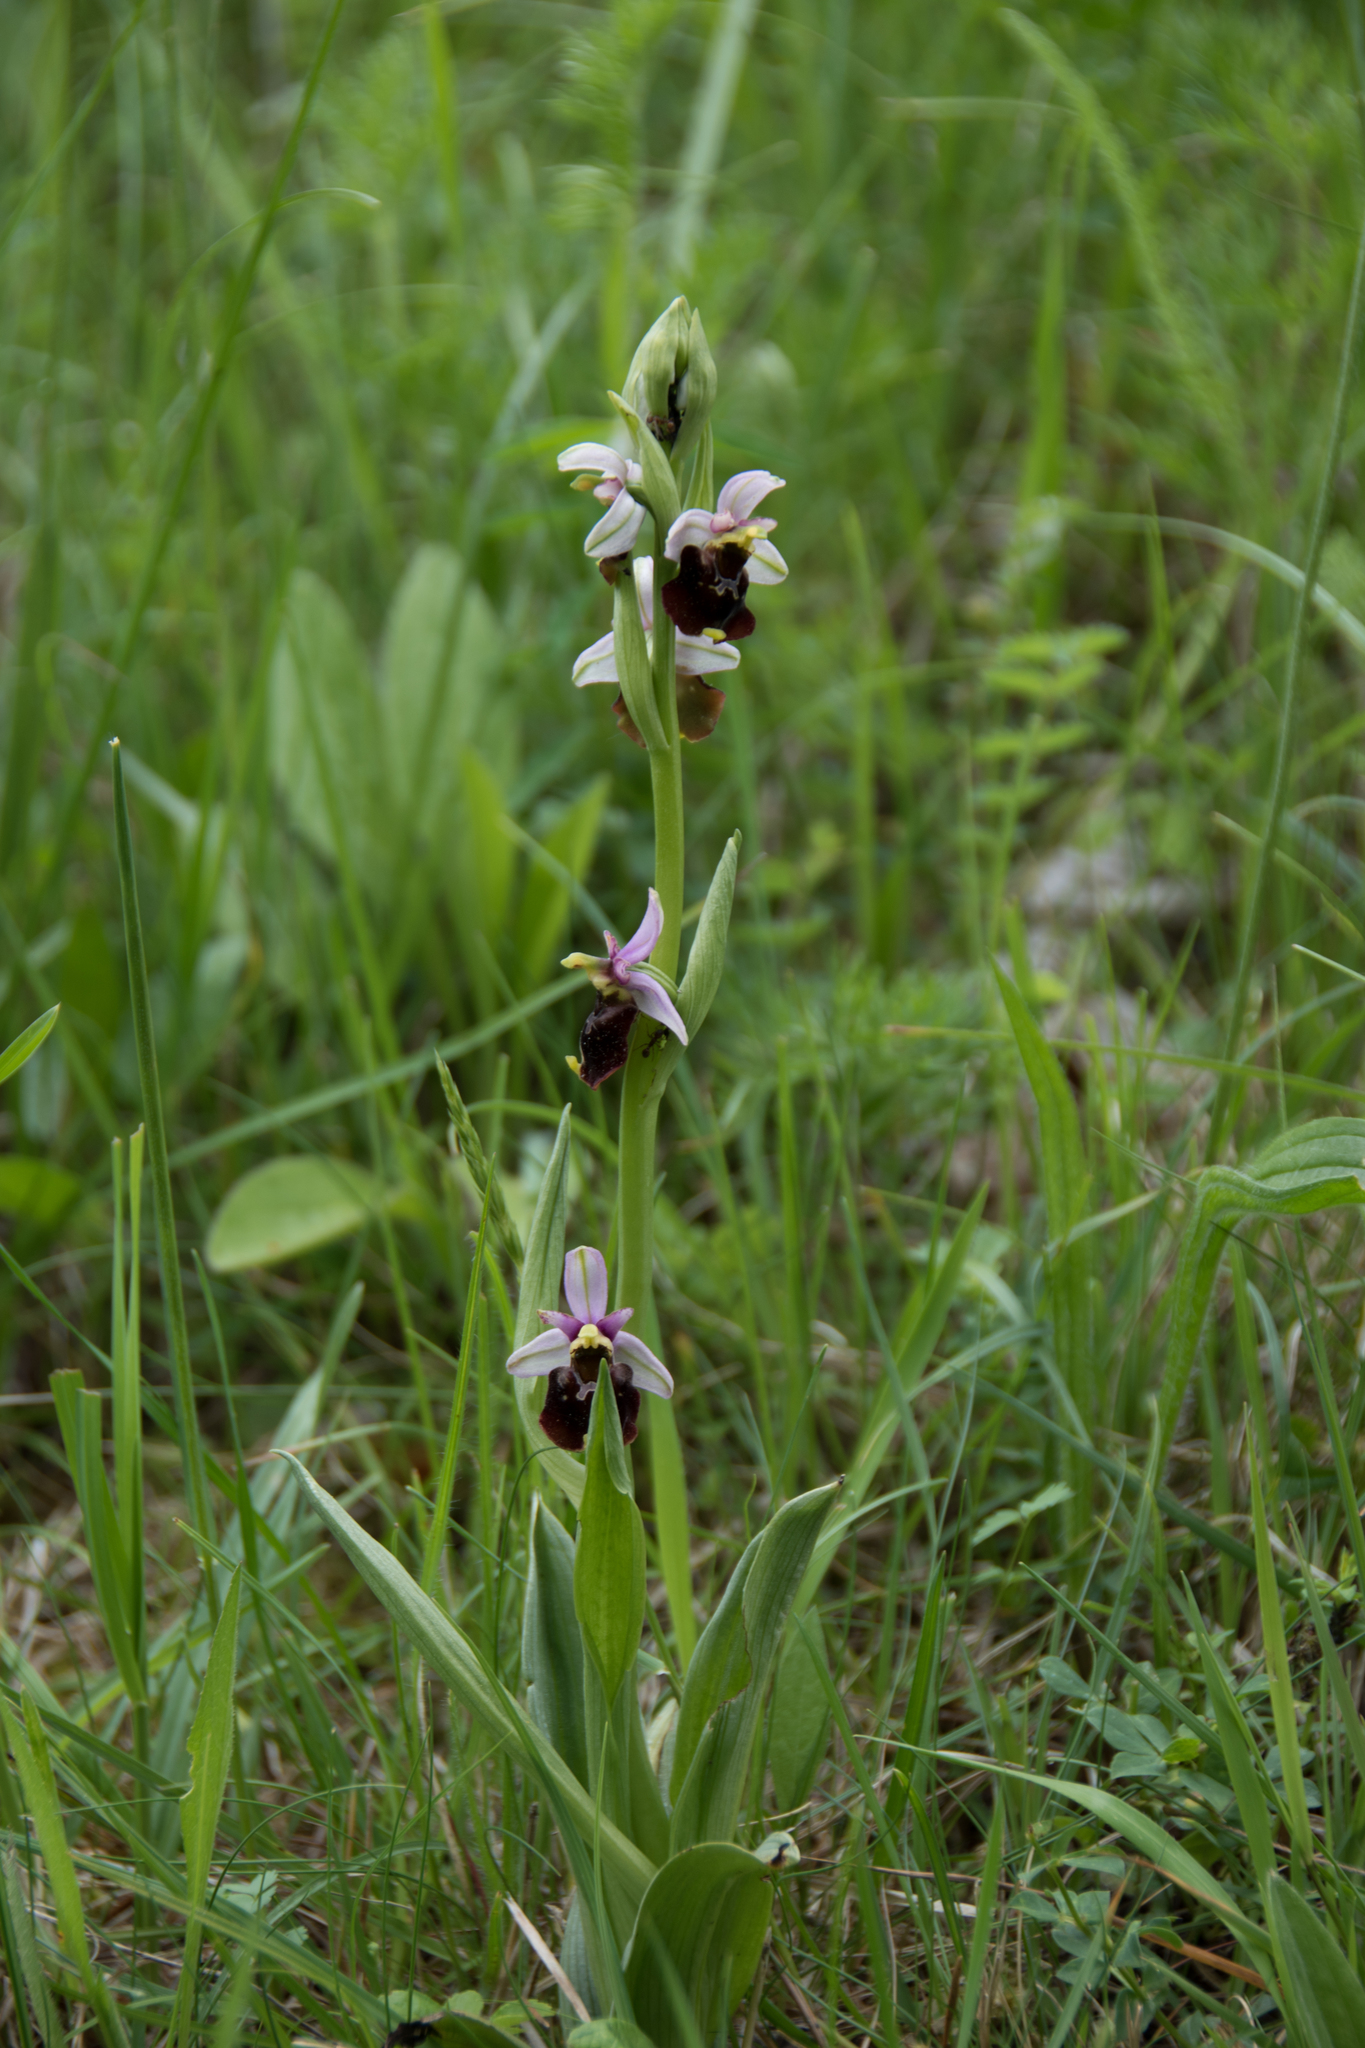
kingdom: Plantae
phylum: Tracheophyta
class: Liliopsida
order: Asparagales
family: Orchidaceae
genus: Ophrys
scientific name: Ophrys holosericea
